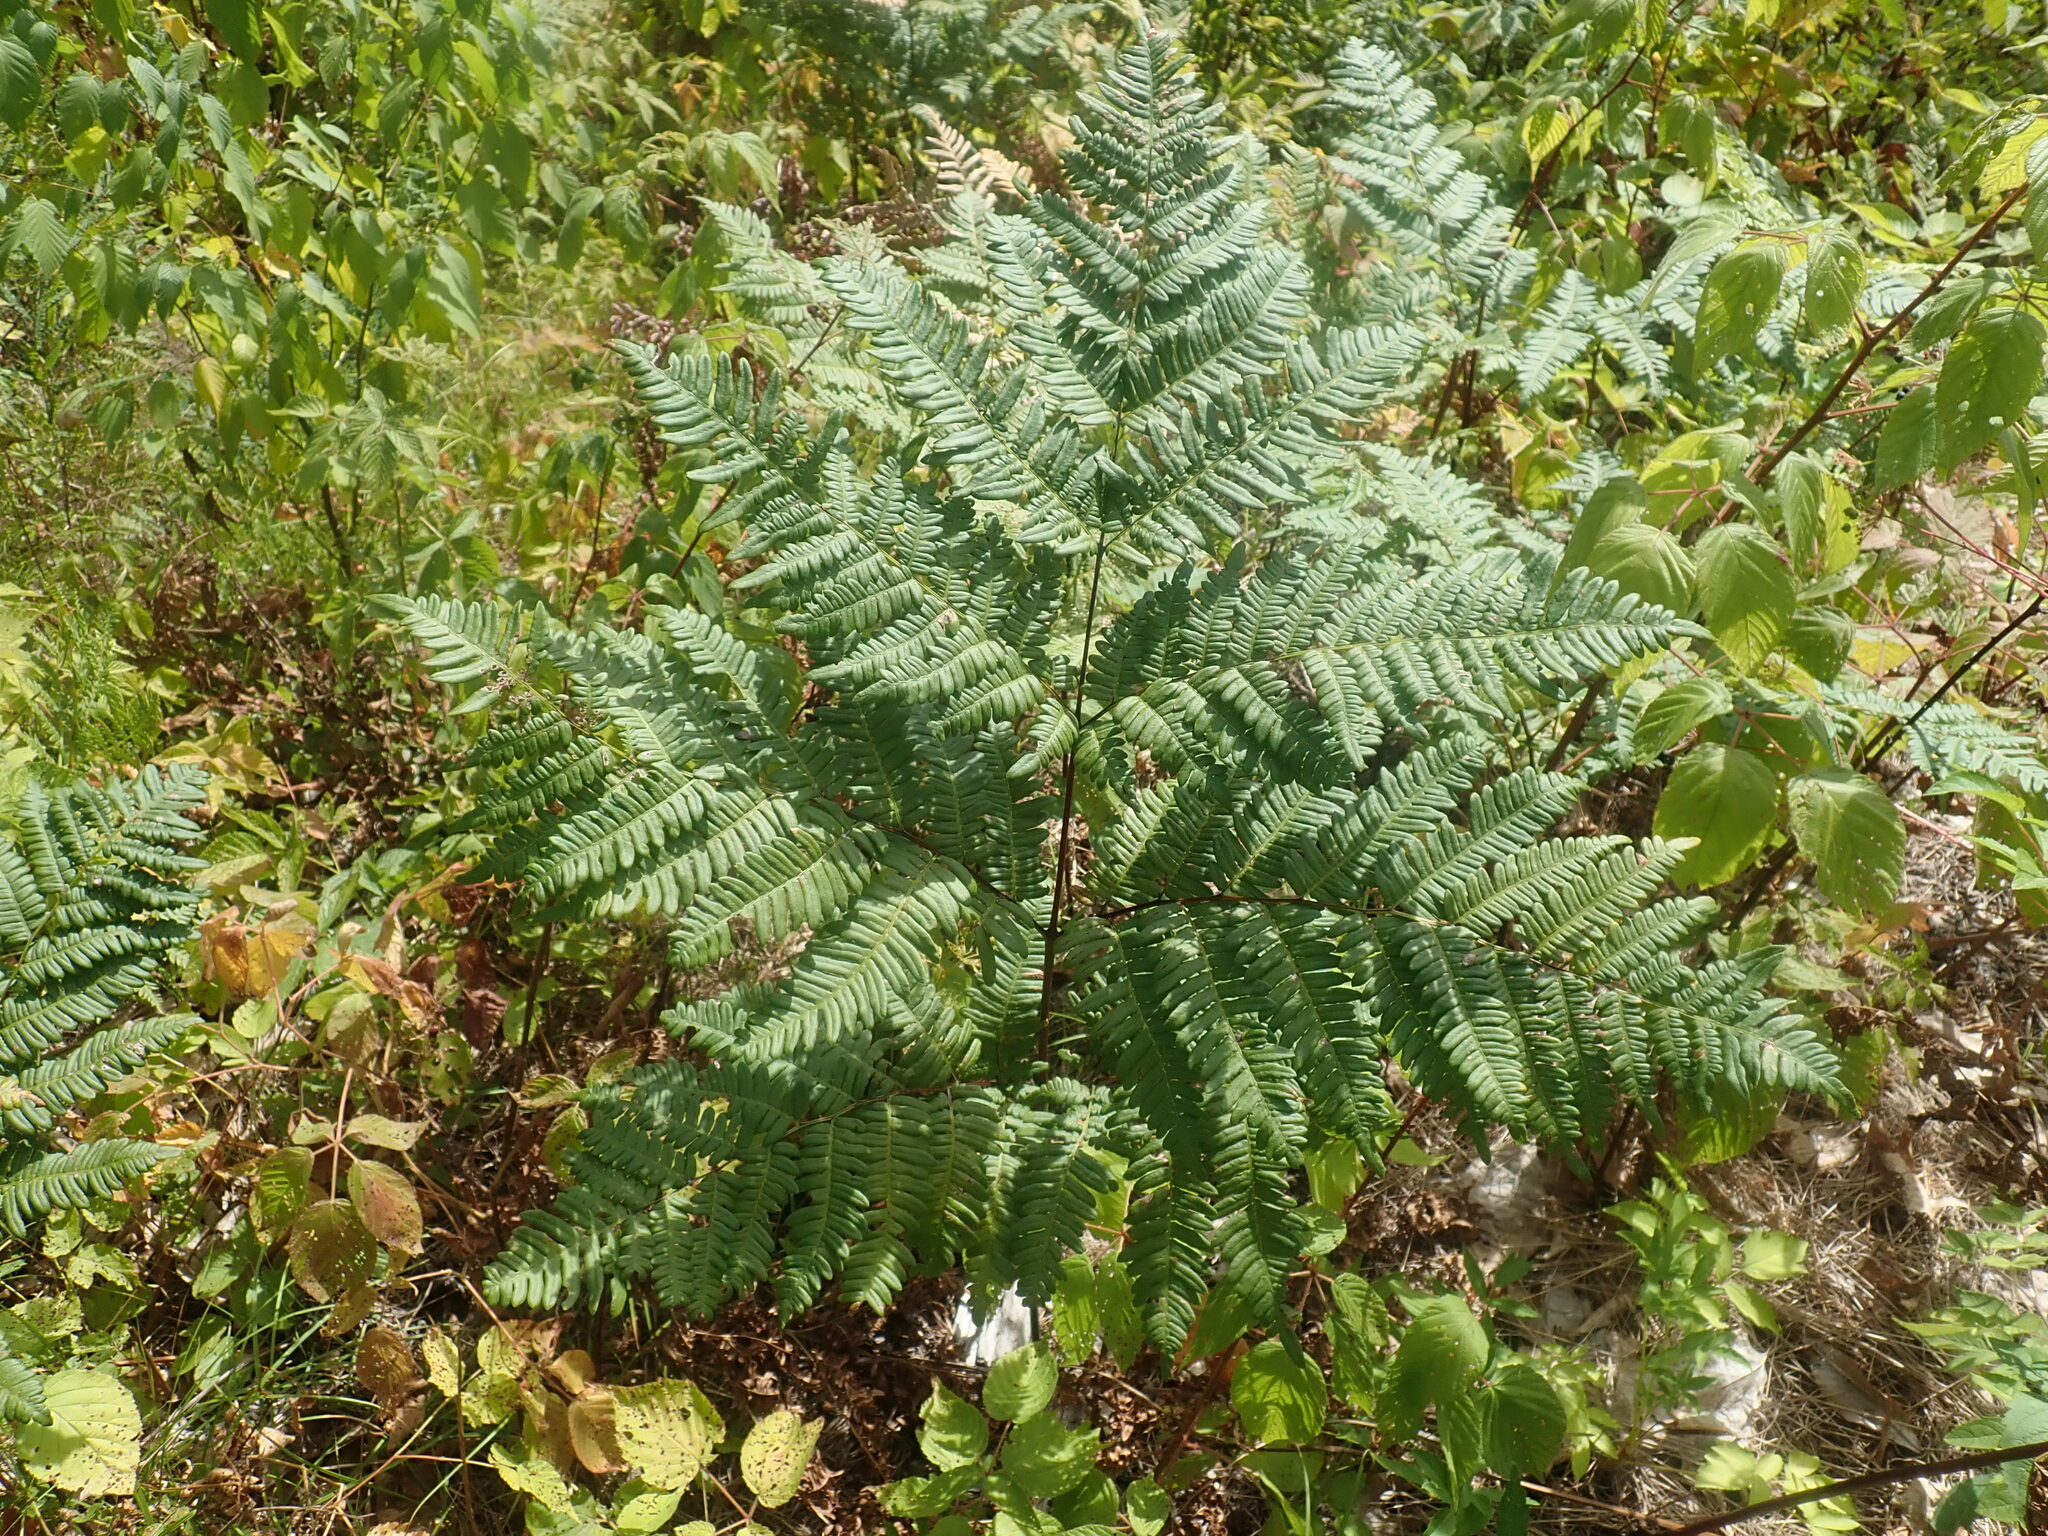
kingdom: Plantae
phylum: Tracheophyta
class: Polypodiopsida
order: Polypodiales
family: Dennstaedtiaceae
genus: Pteridium
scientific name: Pteridium aquilinum
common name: Bracken
